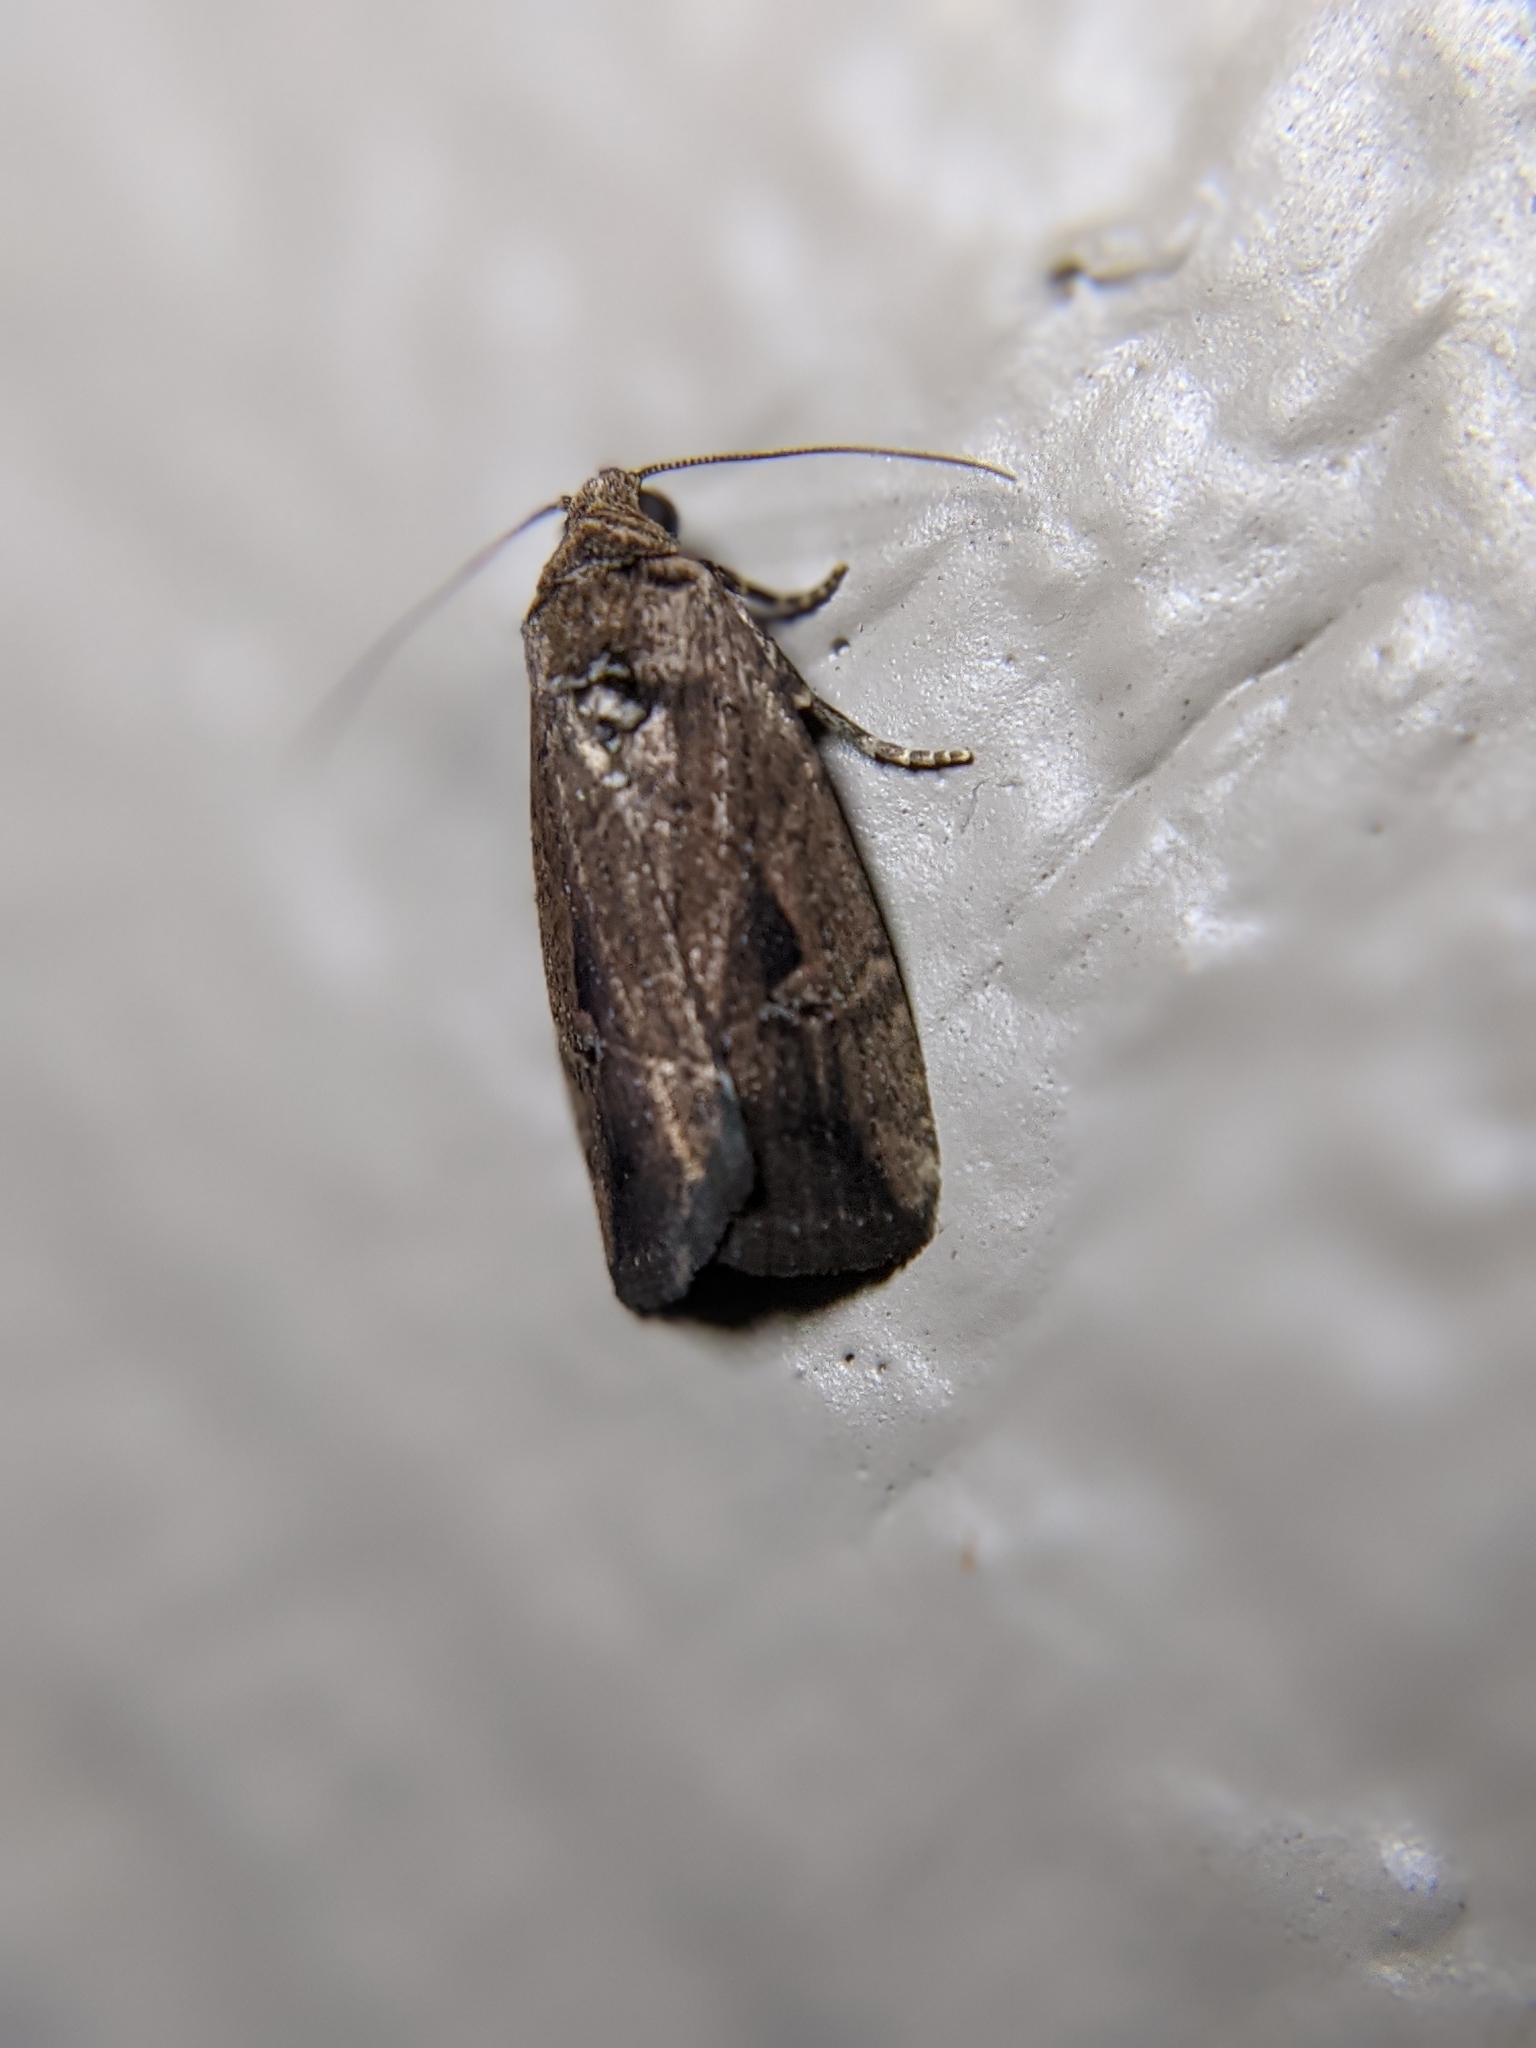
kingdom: Animalia
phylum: Arthropoda
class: Insecta
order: Lepidoptera
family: Noctuidae
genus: Elaphria
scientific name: Elaphria nucicolora
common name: Sugarcane midget moth
